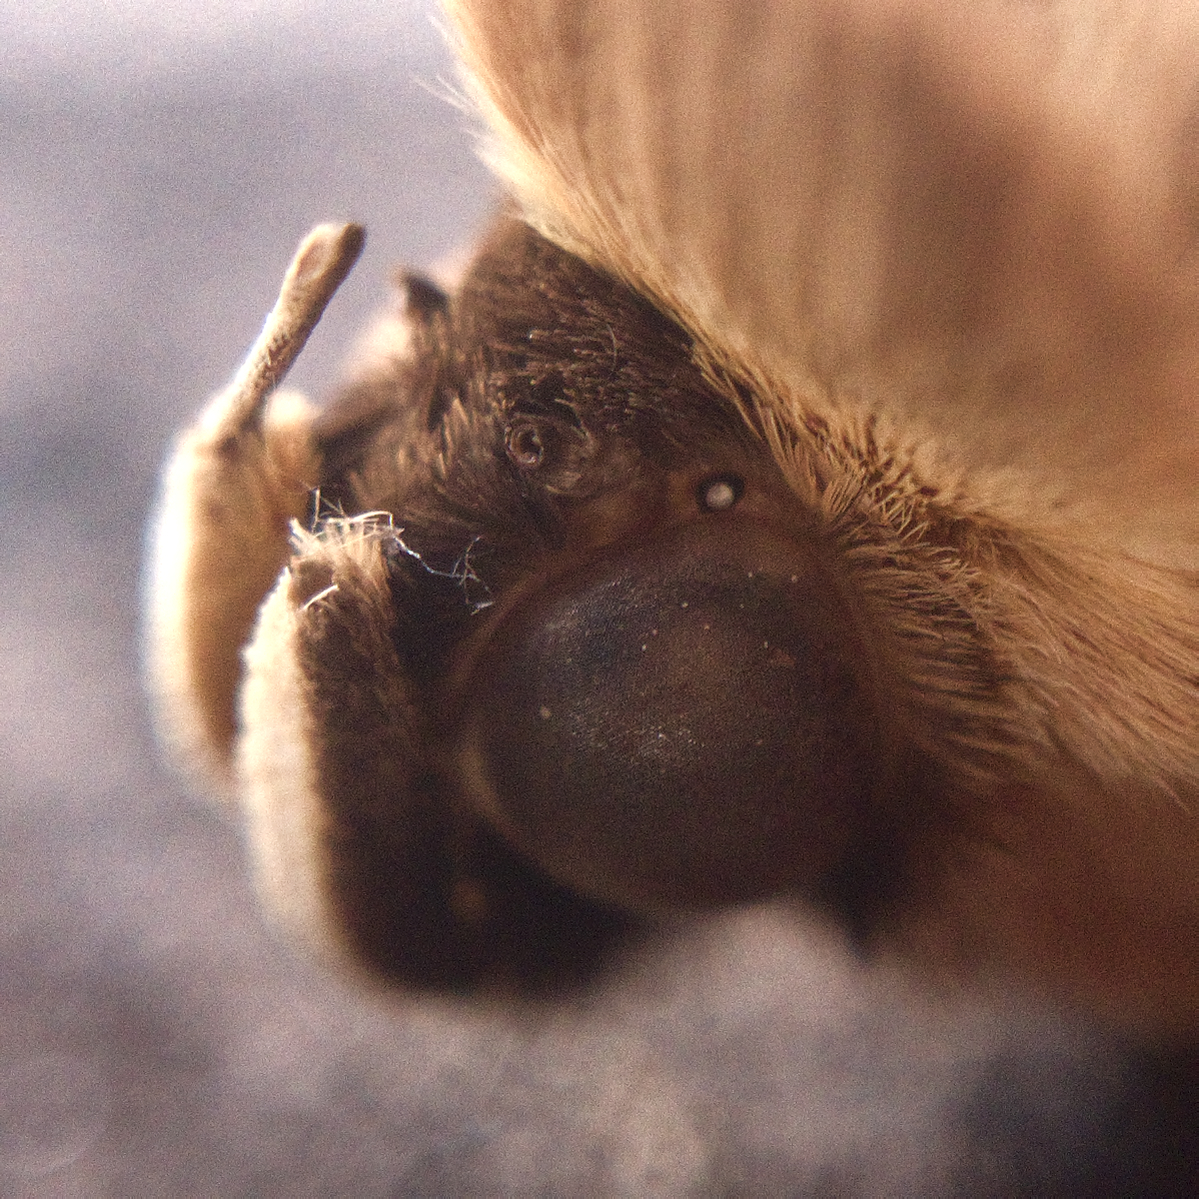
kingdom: Animalia
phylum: Arthropoda
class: Insecta
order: Lepidoptera
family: Erebidae
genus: Dasypodia
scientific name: Dasypodia selenophora
